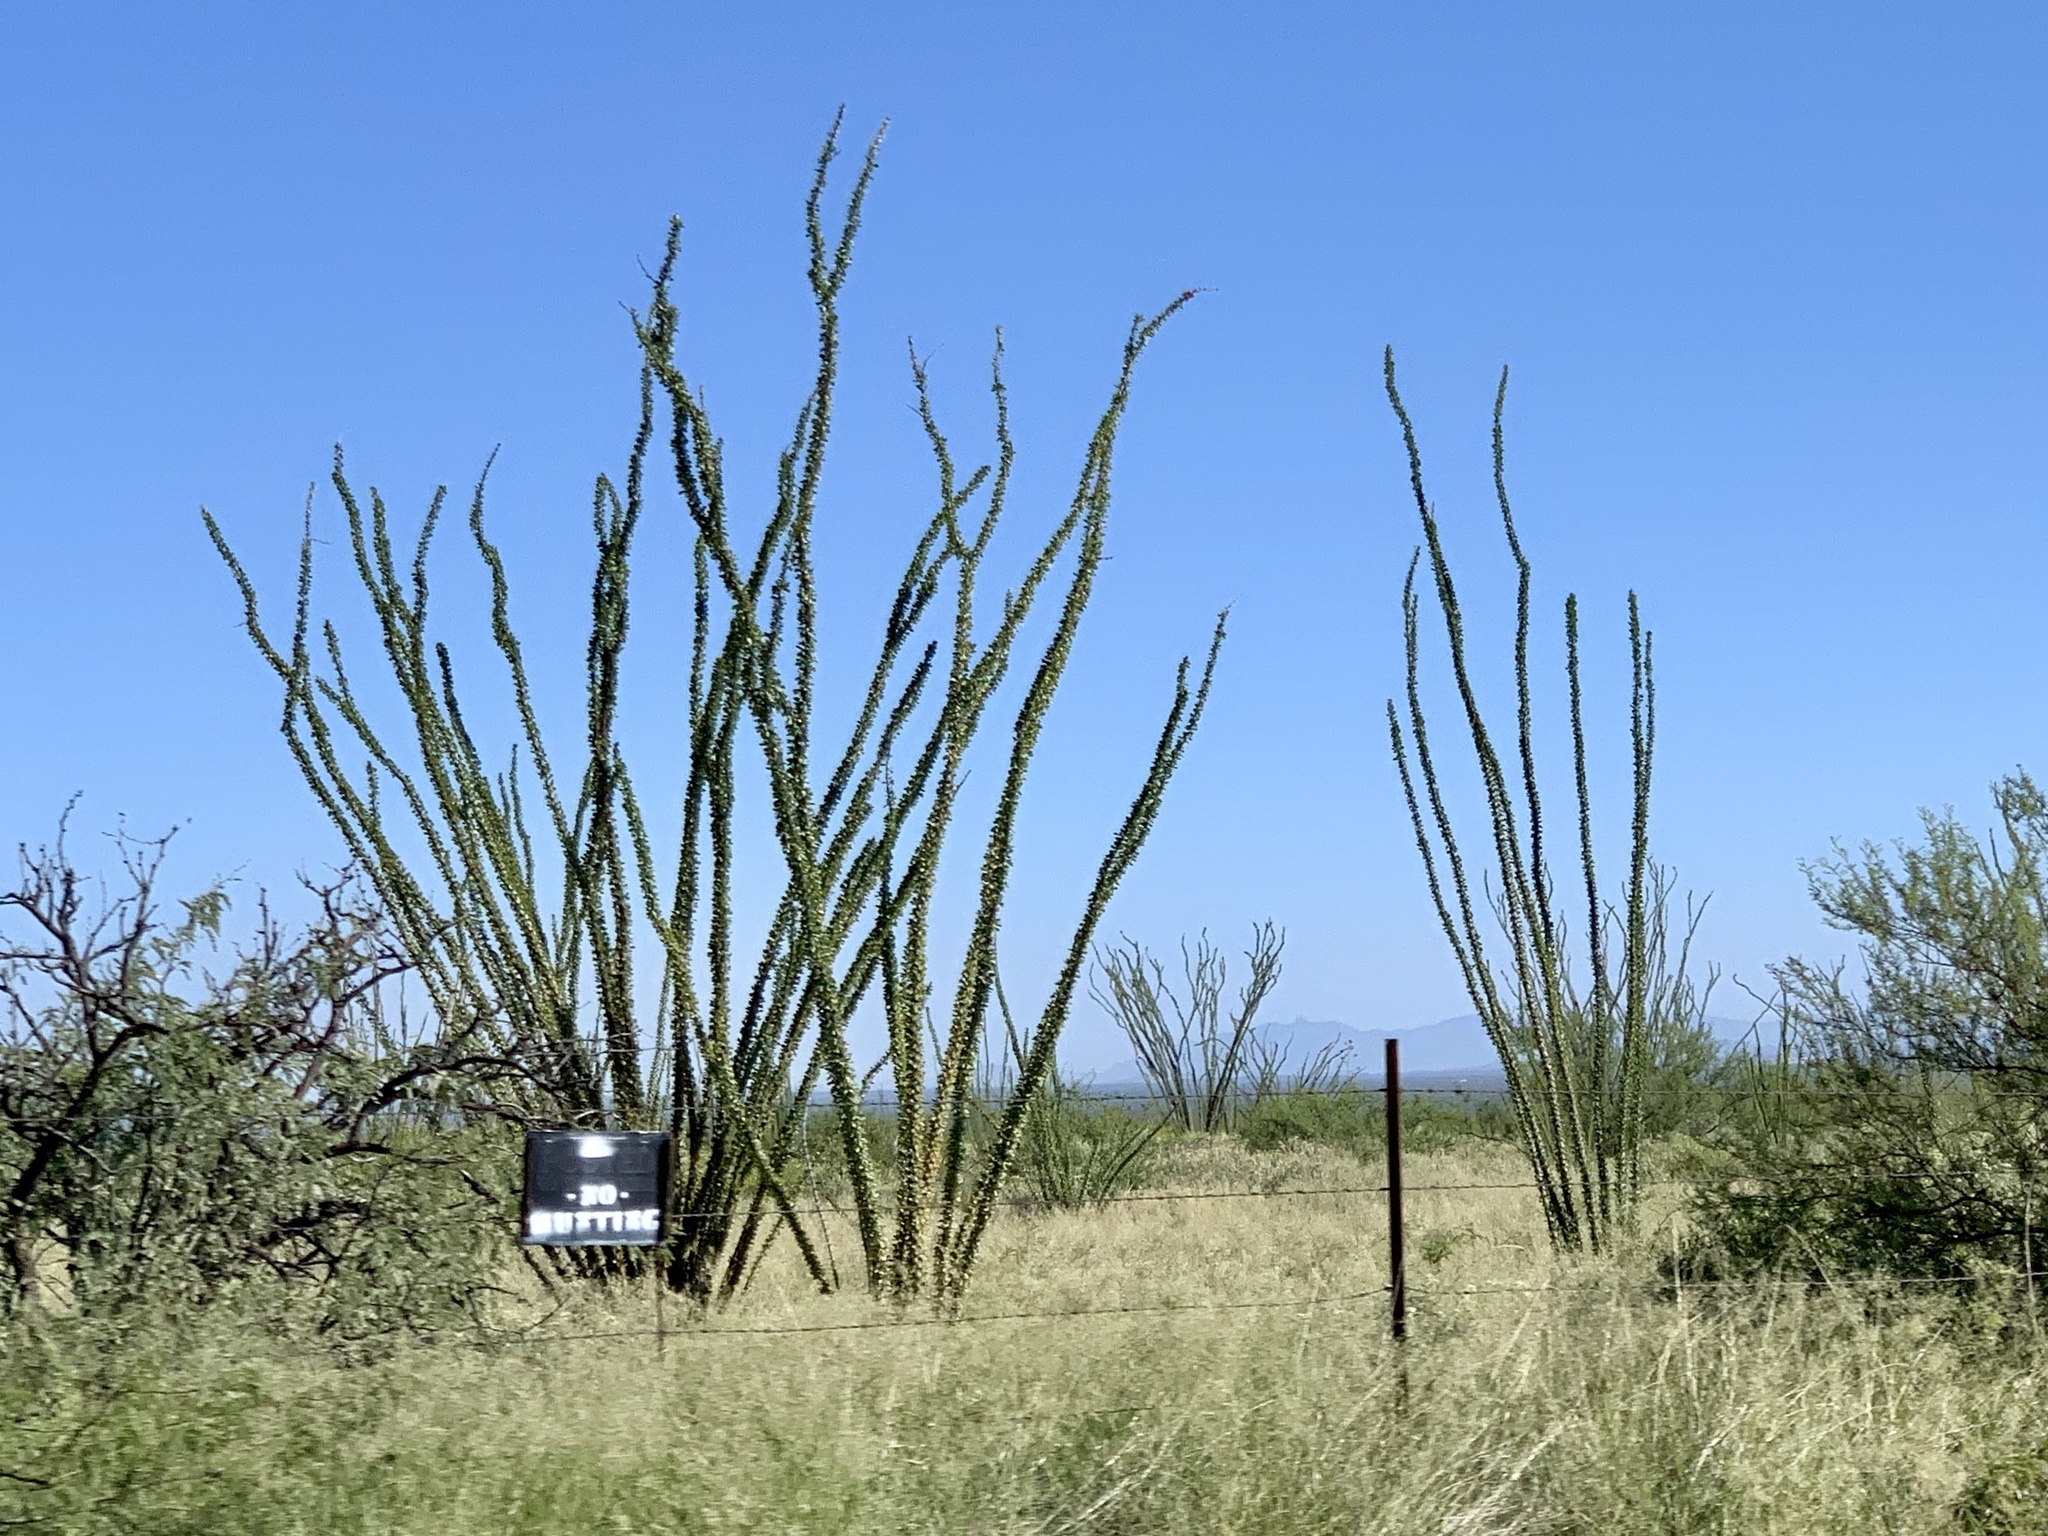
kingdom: Plantae
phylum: Tracheophyta
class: Magnoliopsida
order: Ericales
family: Fouquieriaceae
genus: Fouquieria
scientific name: Fouquieria splendens
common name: Vine-cactus
